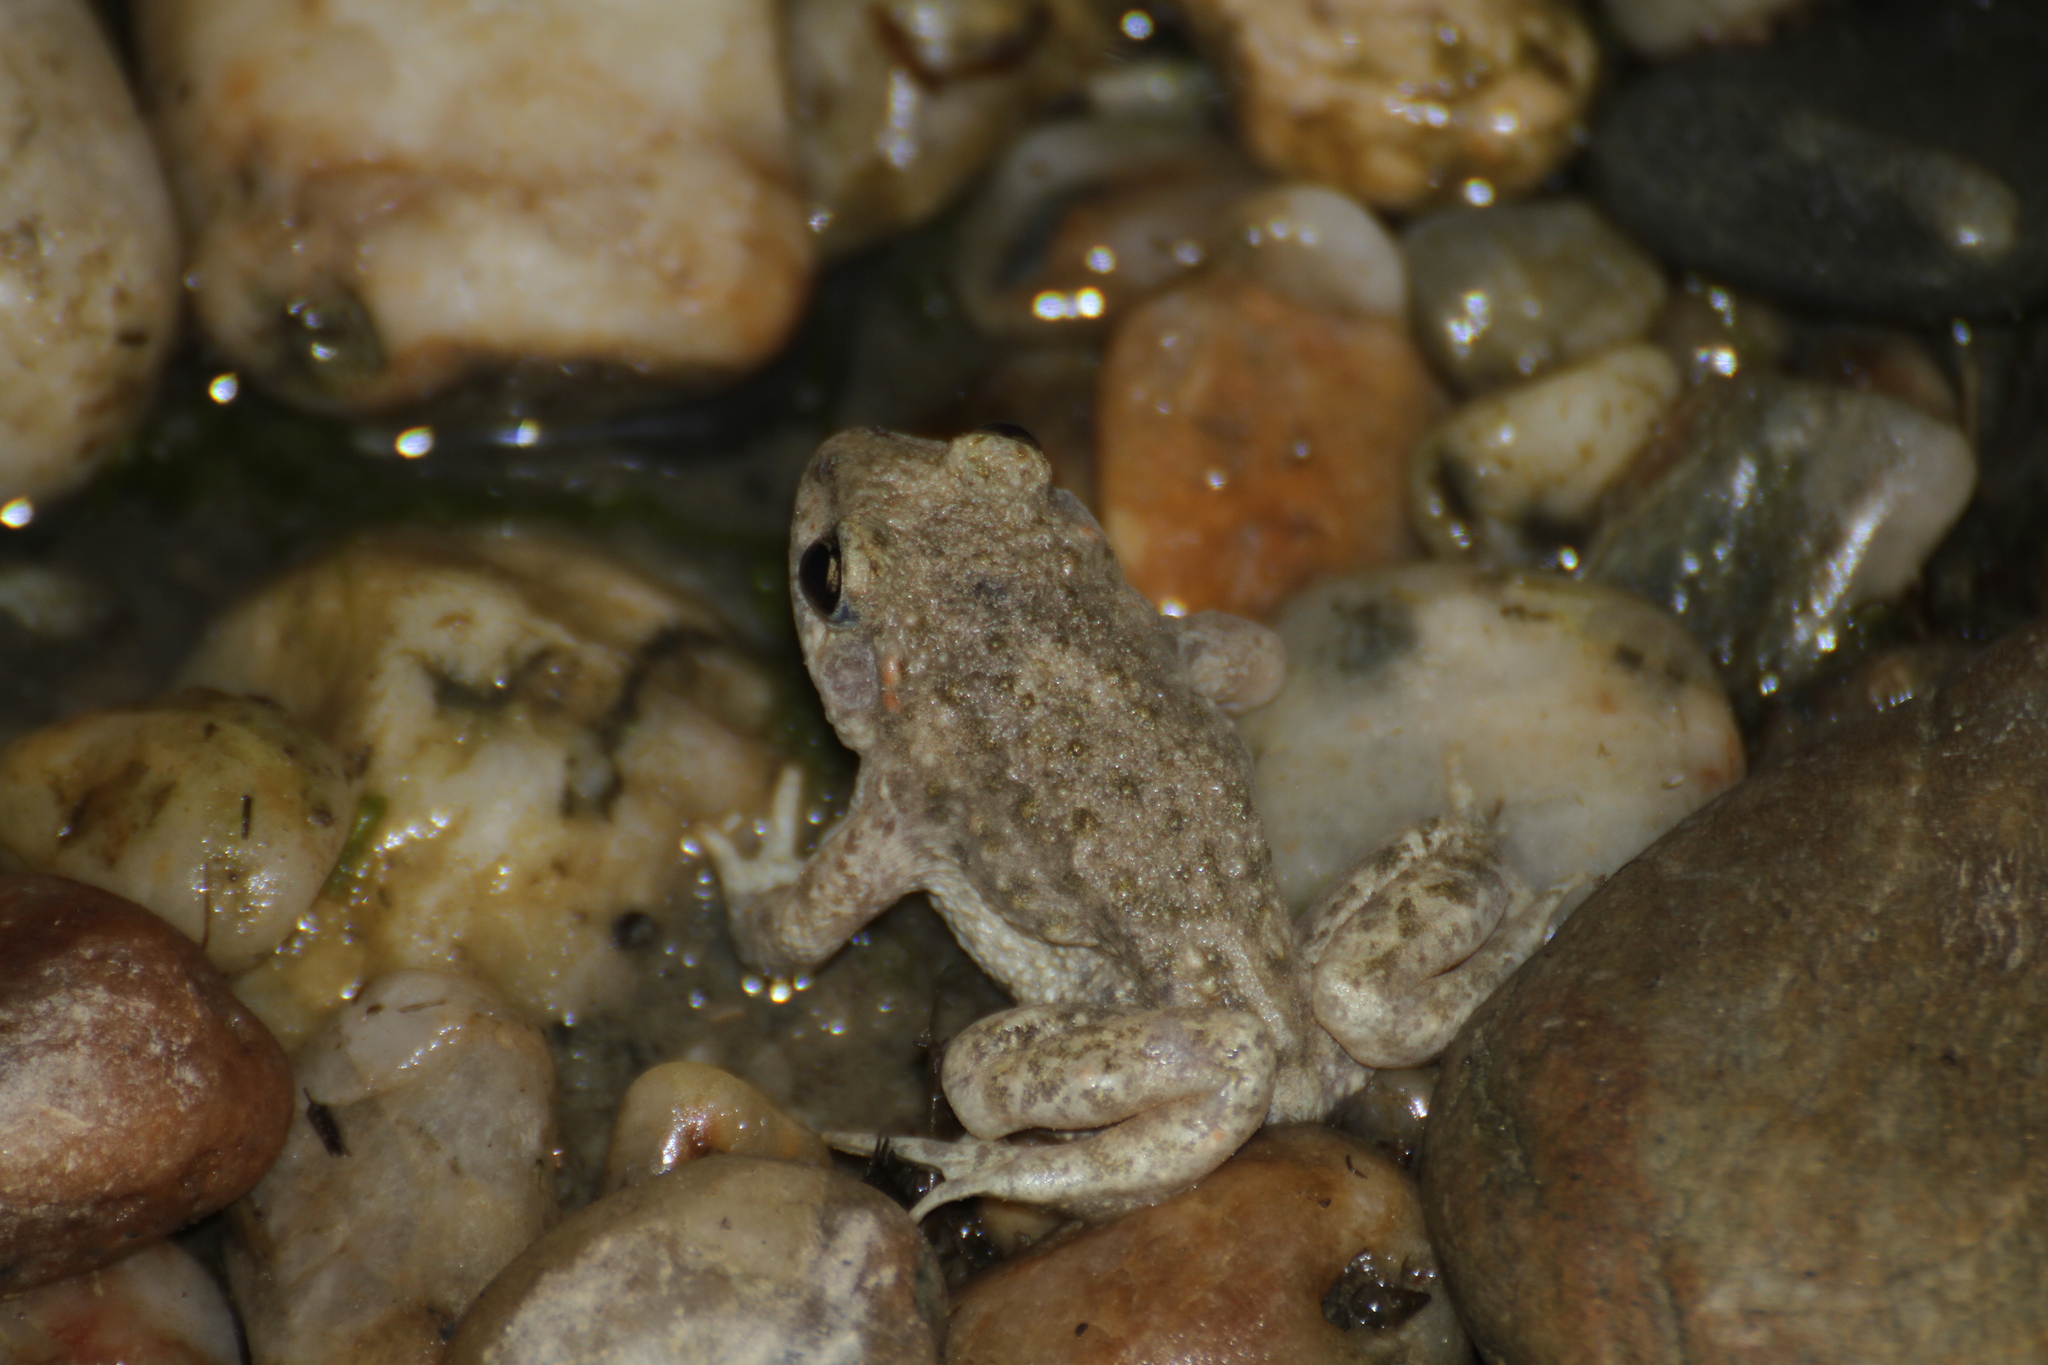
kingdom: Animalia
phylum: Chordata
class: Amphibia
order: Anura
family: Alytidae
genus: Alytes
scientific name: Alytes obstetricans
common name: Midwife toad
